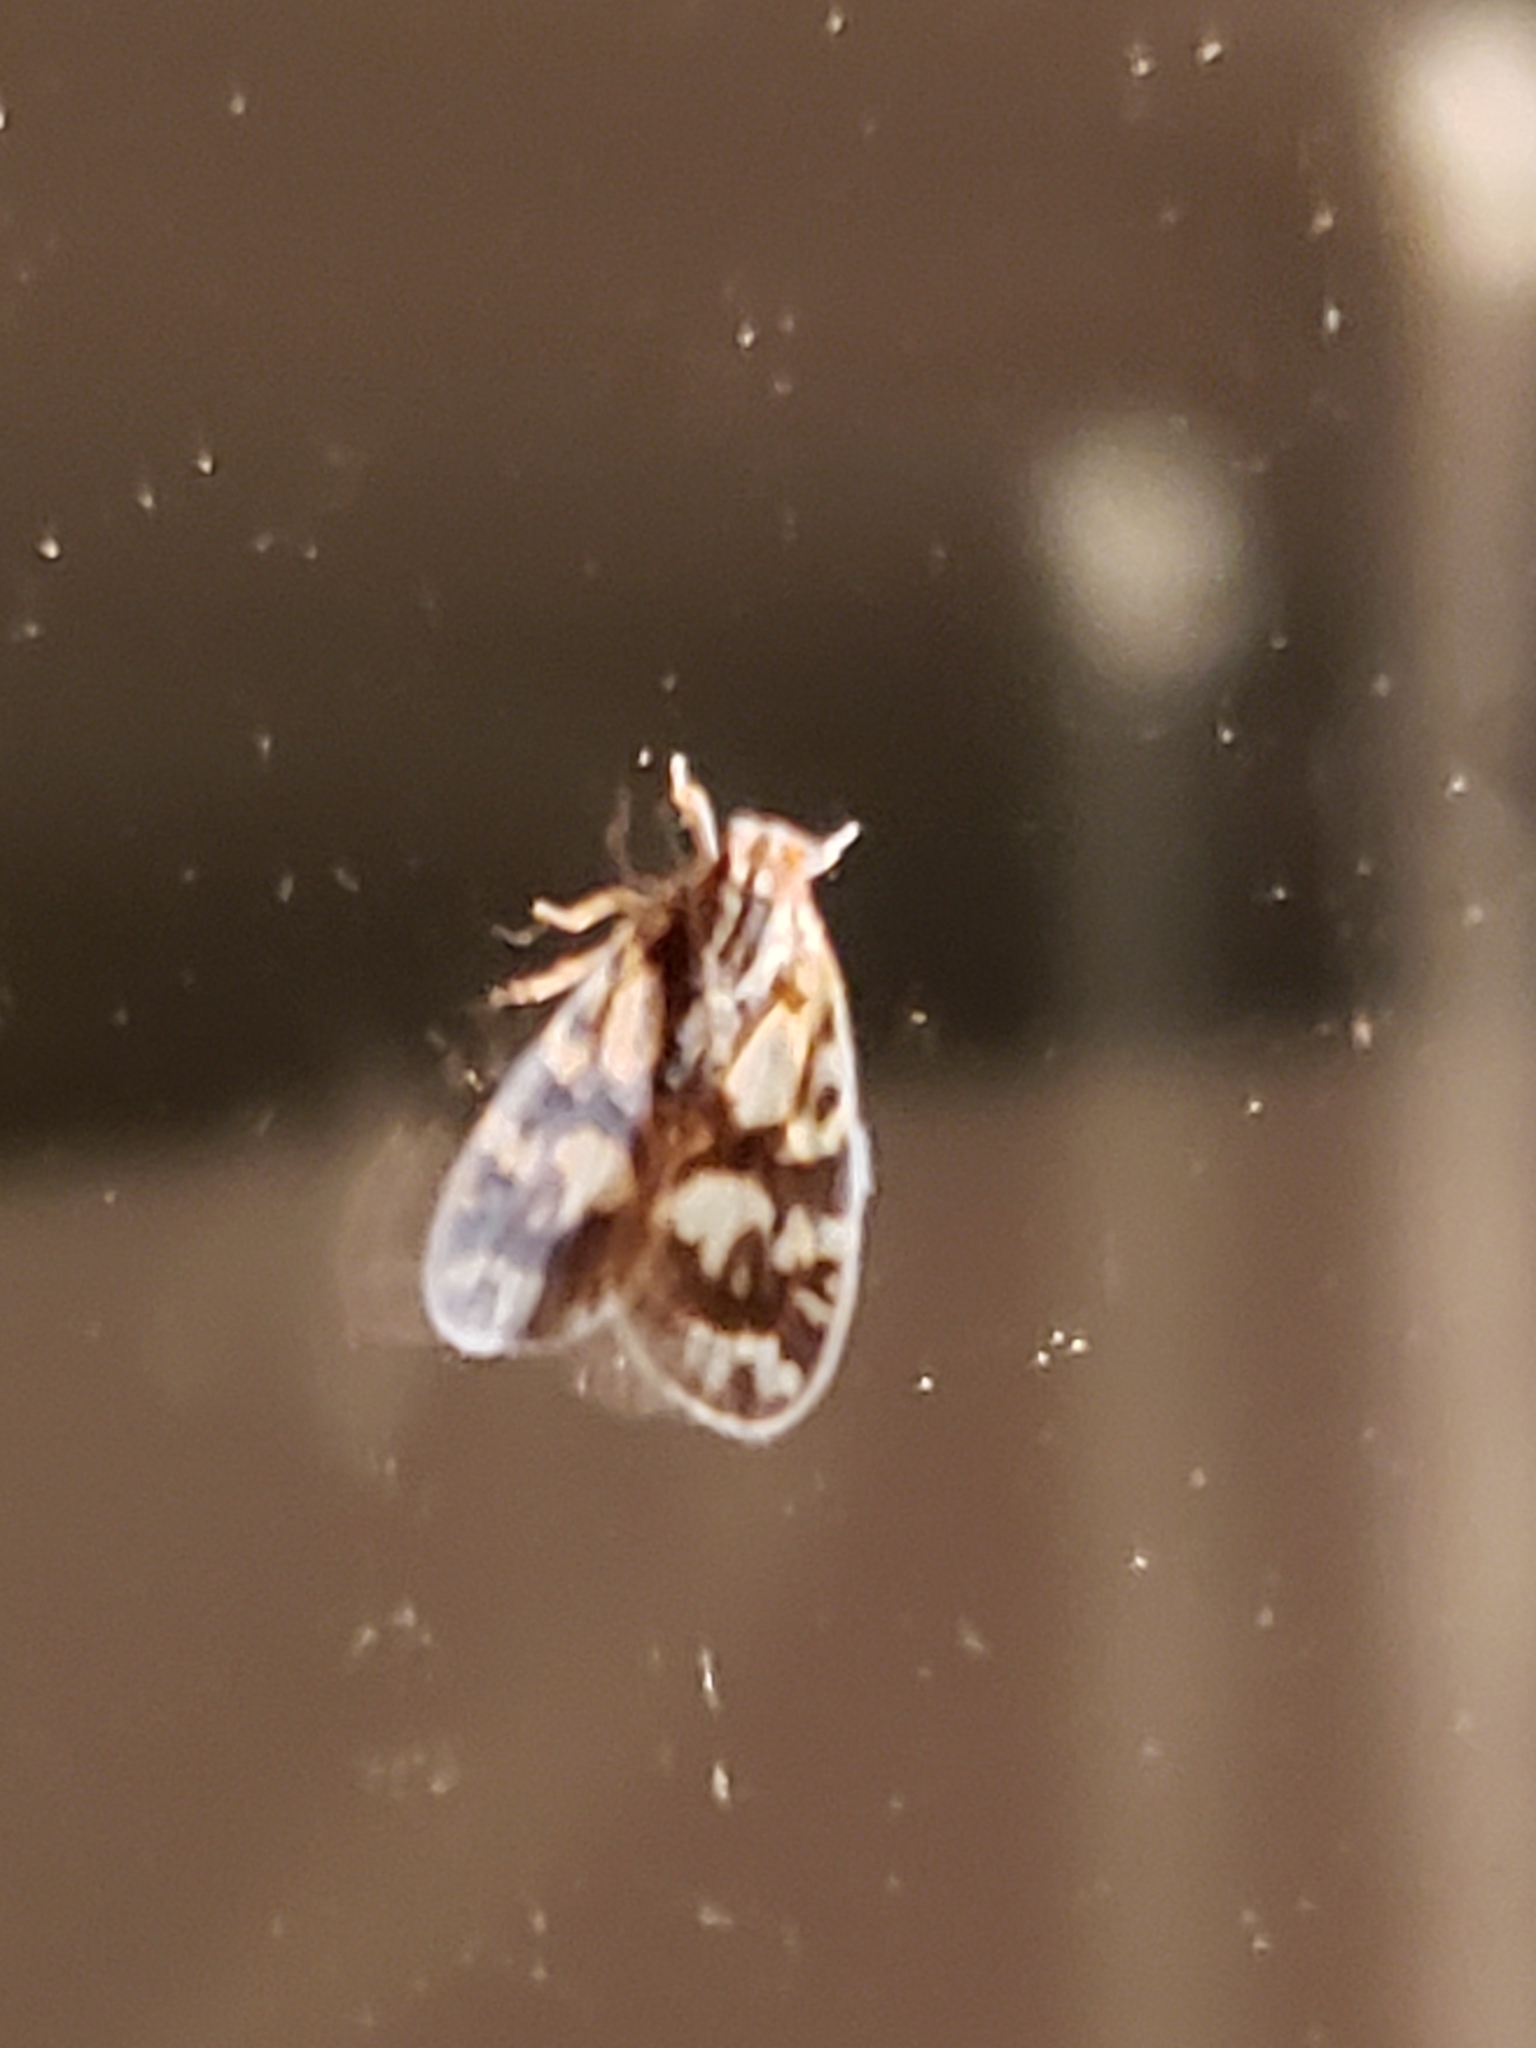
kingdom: Animalia
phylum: Arthropoda
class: Insecta
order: Hemiptera
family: Cixiidae
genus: Bothriocera
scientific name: Bothriocera cognita
